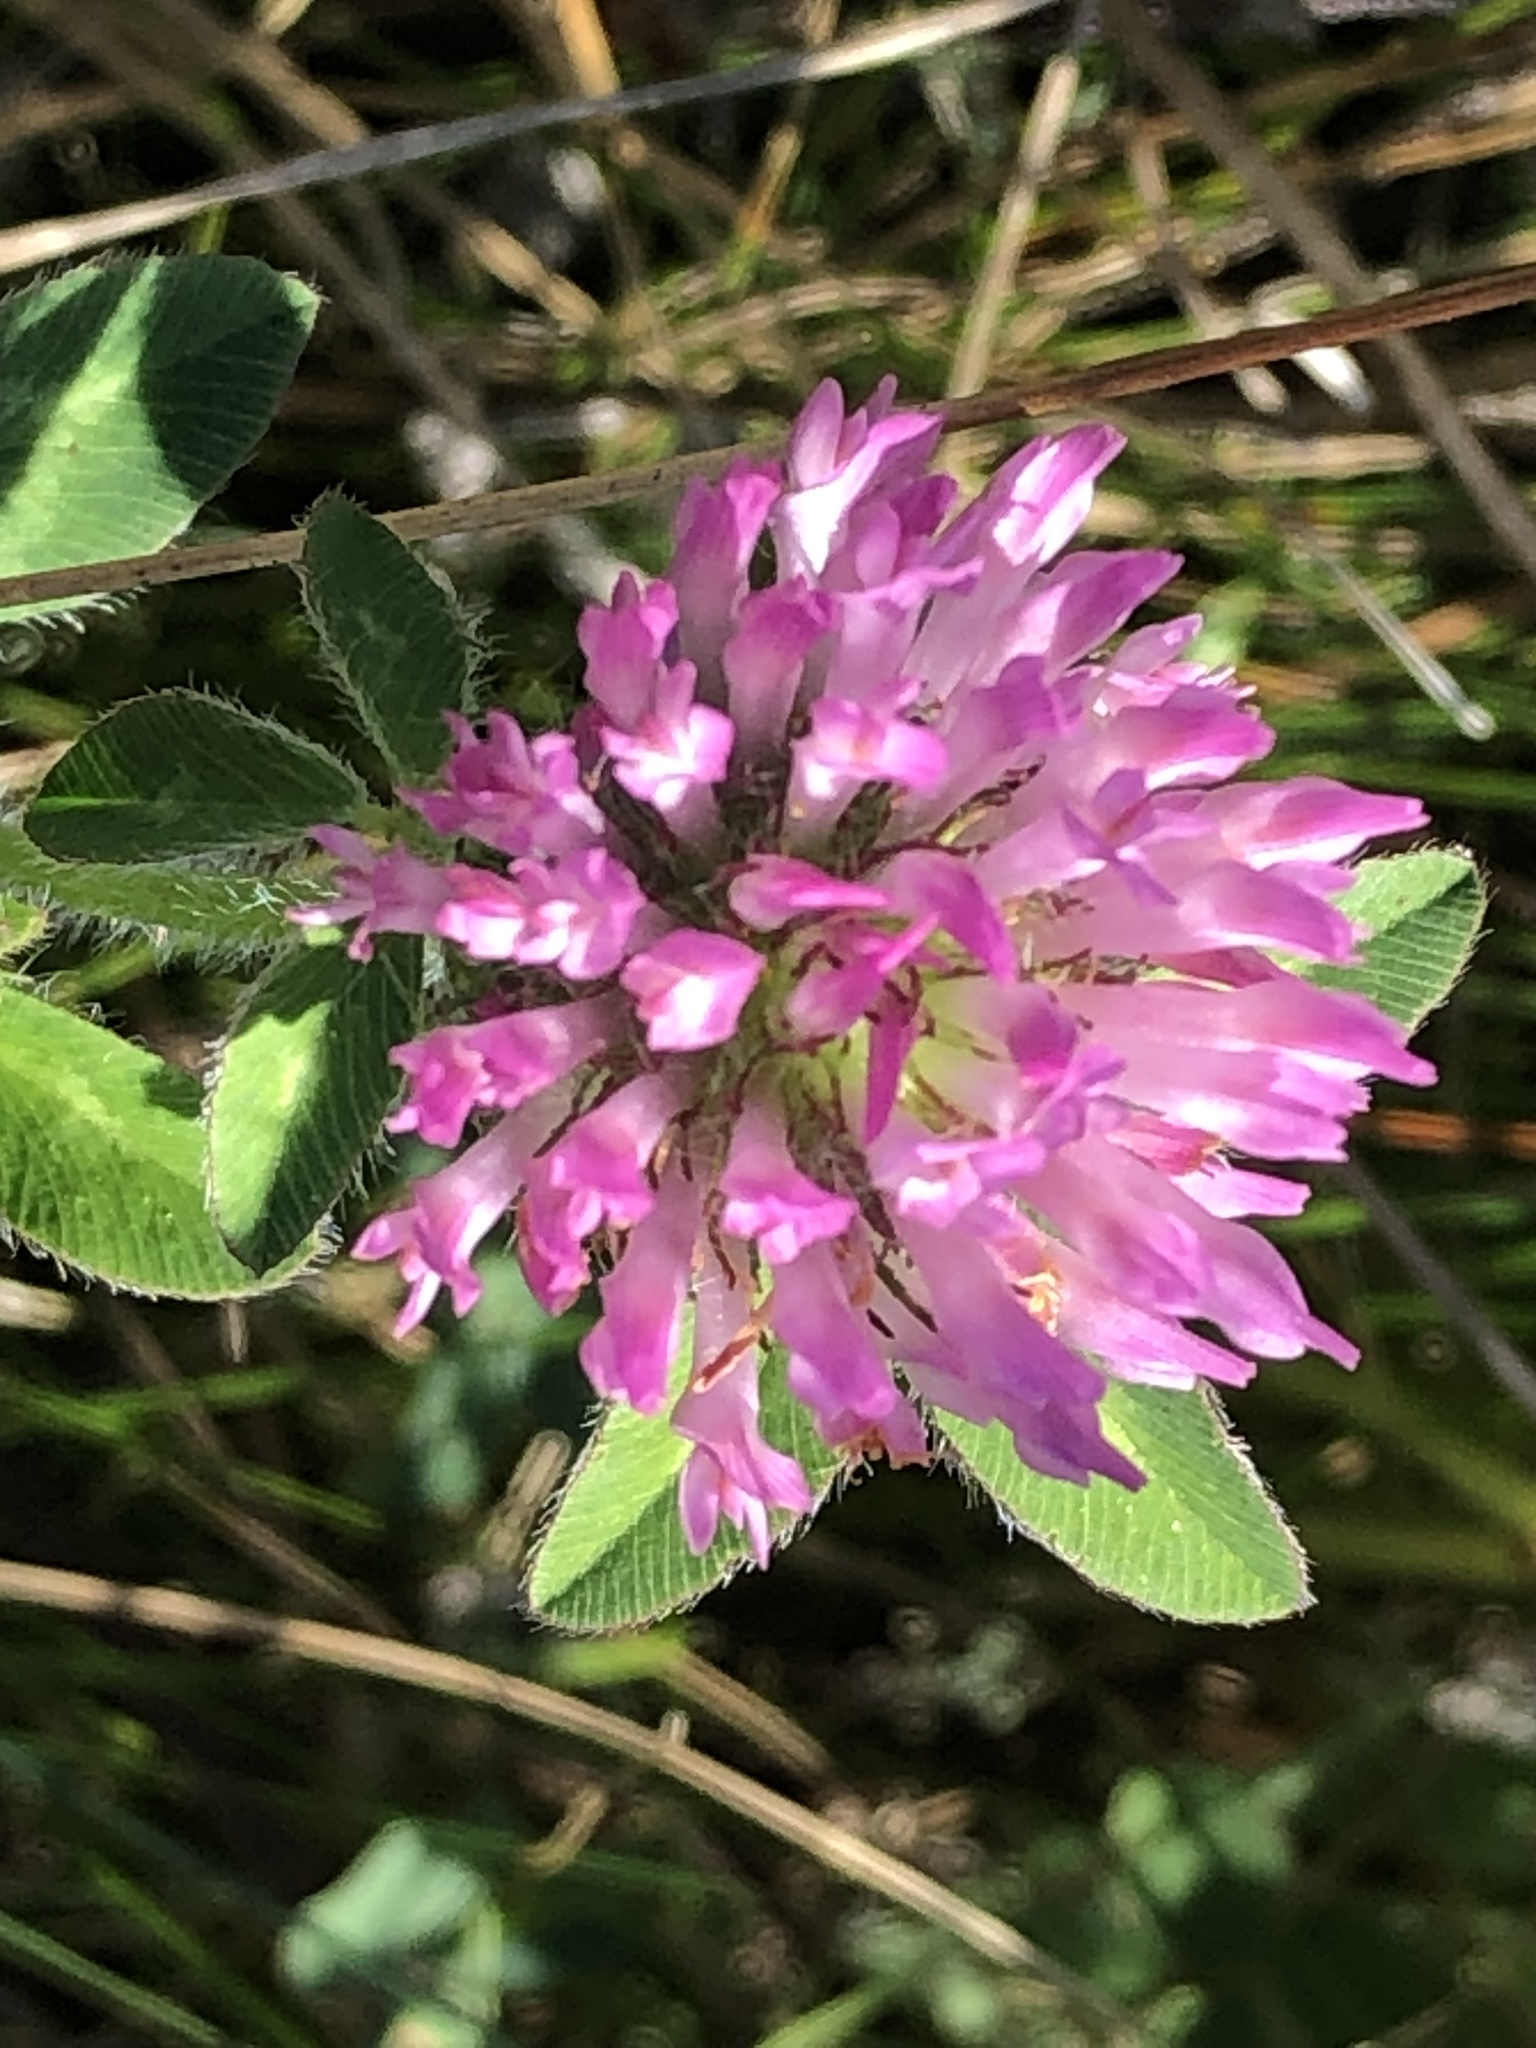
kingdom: Plantae
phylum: Tracheophyta
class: Magnoliopsida
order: Fabales
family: Fabaceae
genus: Trifolium
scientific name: Trifolium pratense
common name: Red clover
